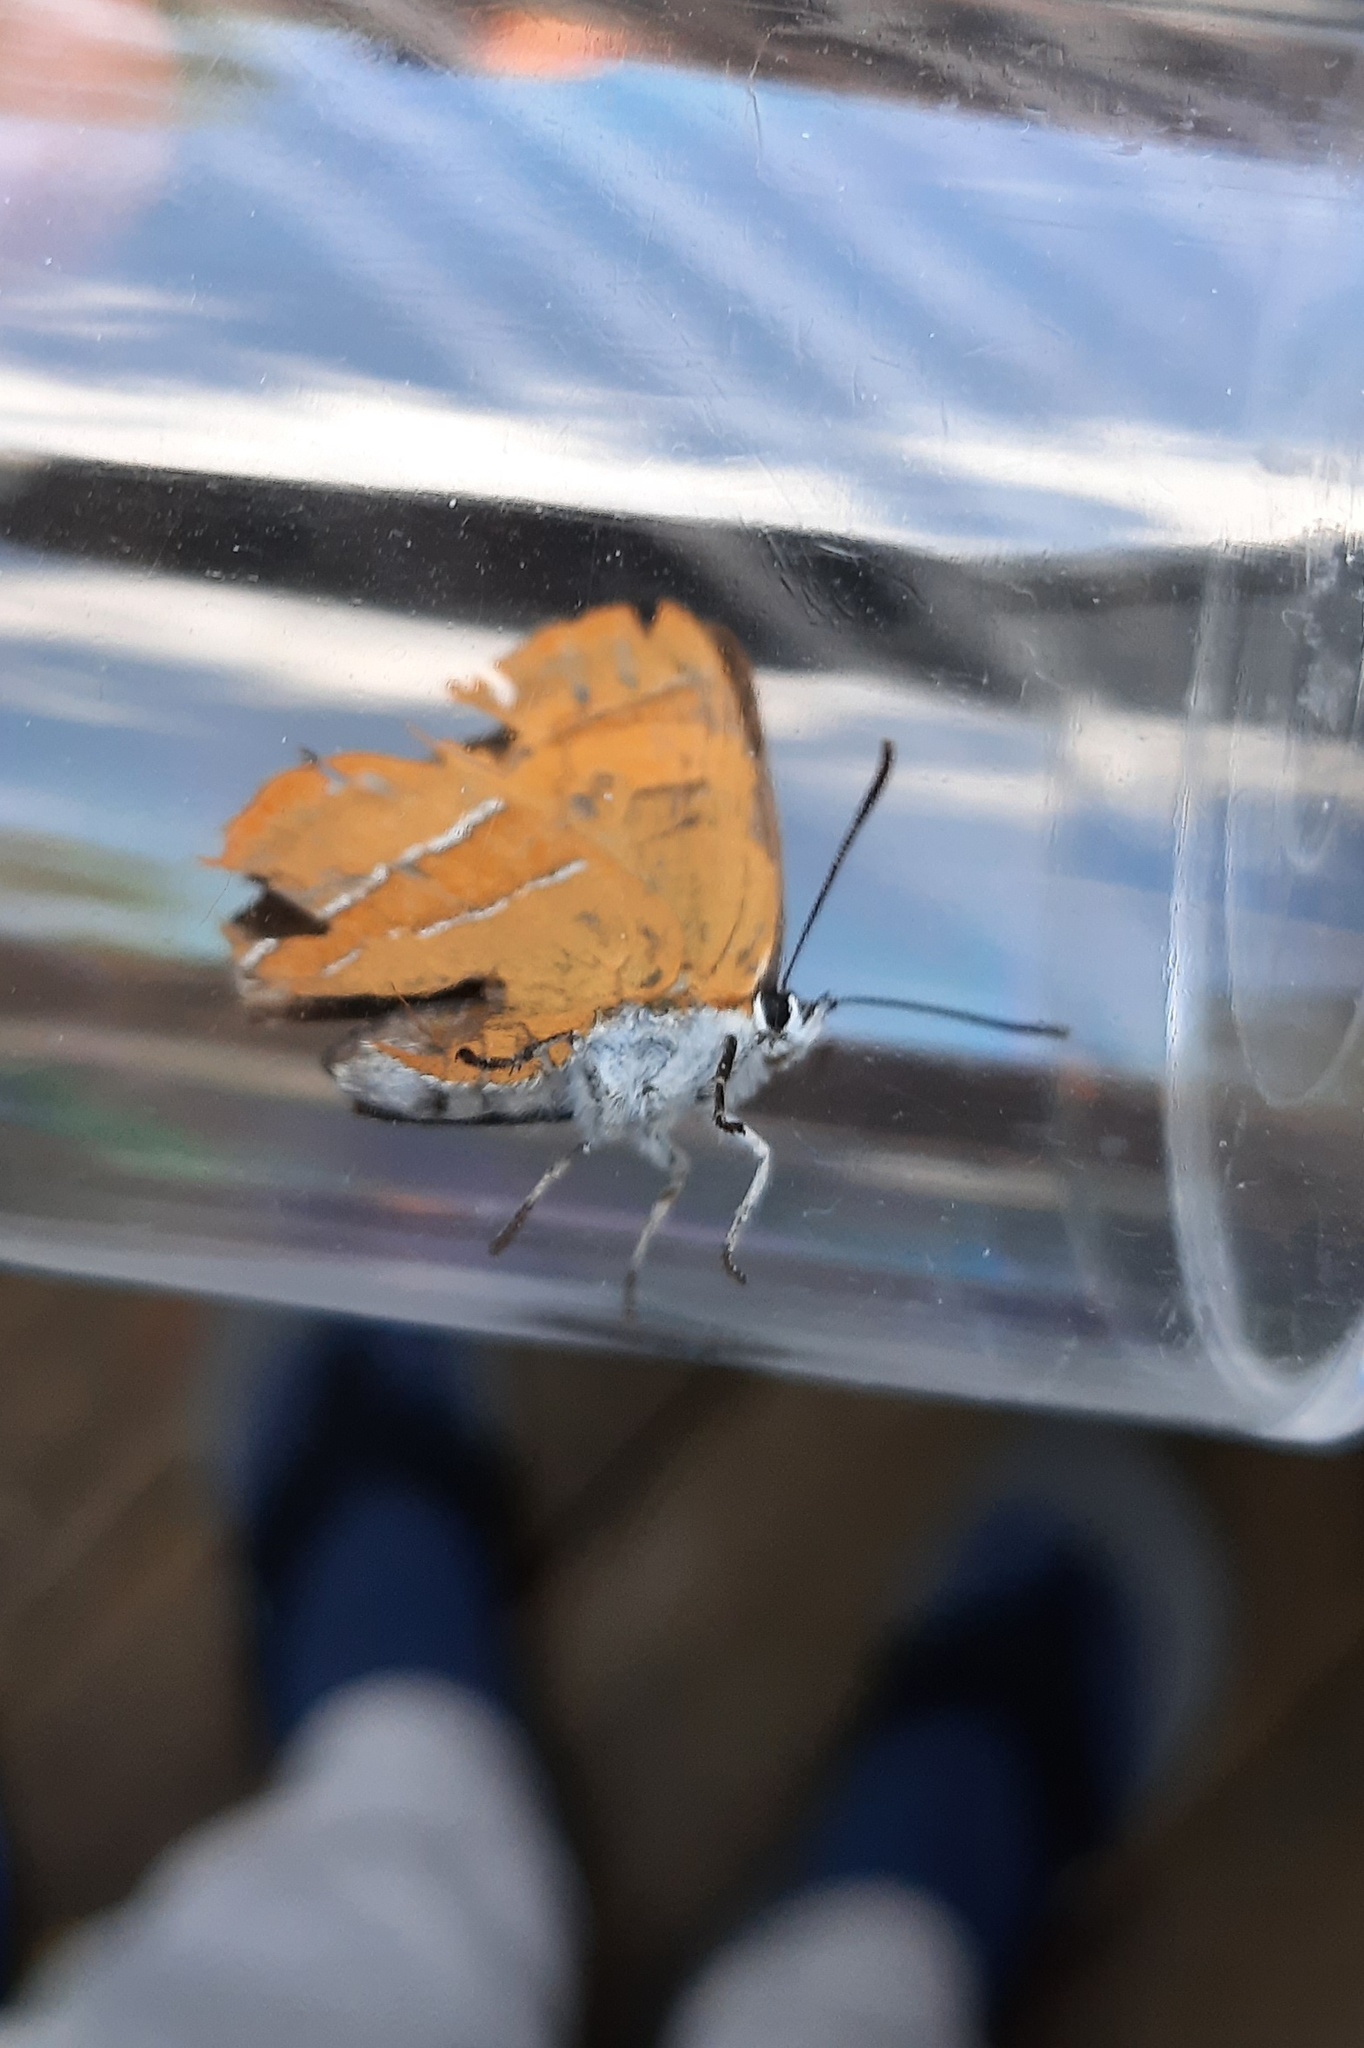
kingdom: Animalia
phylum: Arthropoda
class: Insecta
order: Lepidoptera
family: Lycaenidae
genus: Thecla
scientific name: Thecla betulae
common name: Brown hairstreak
